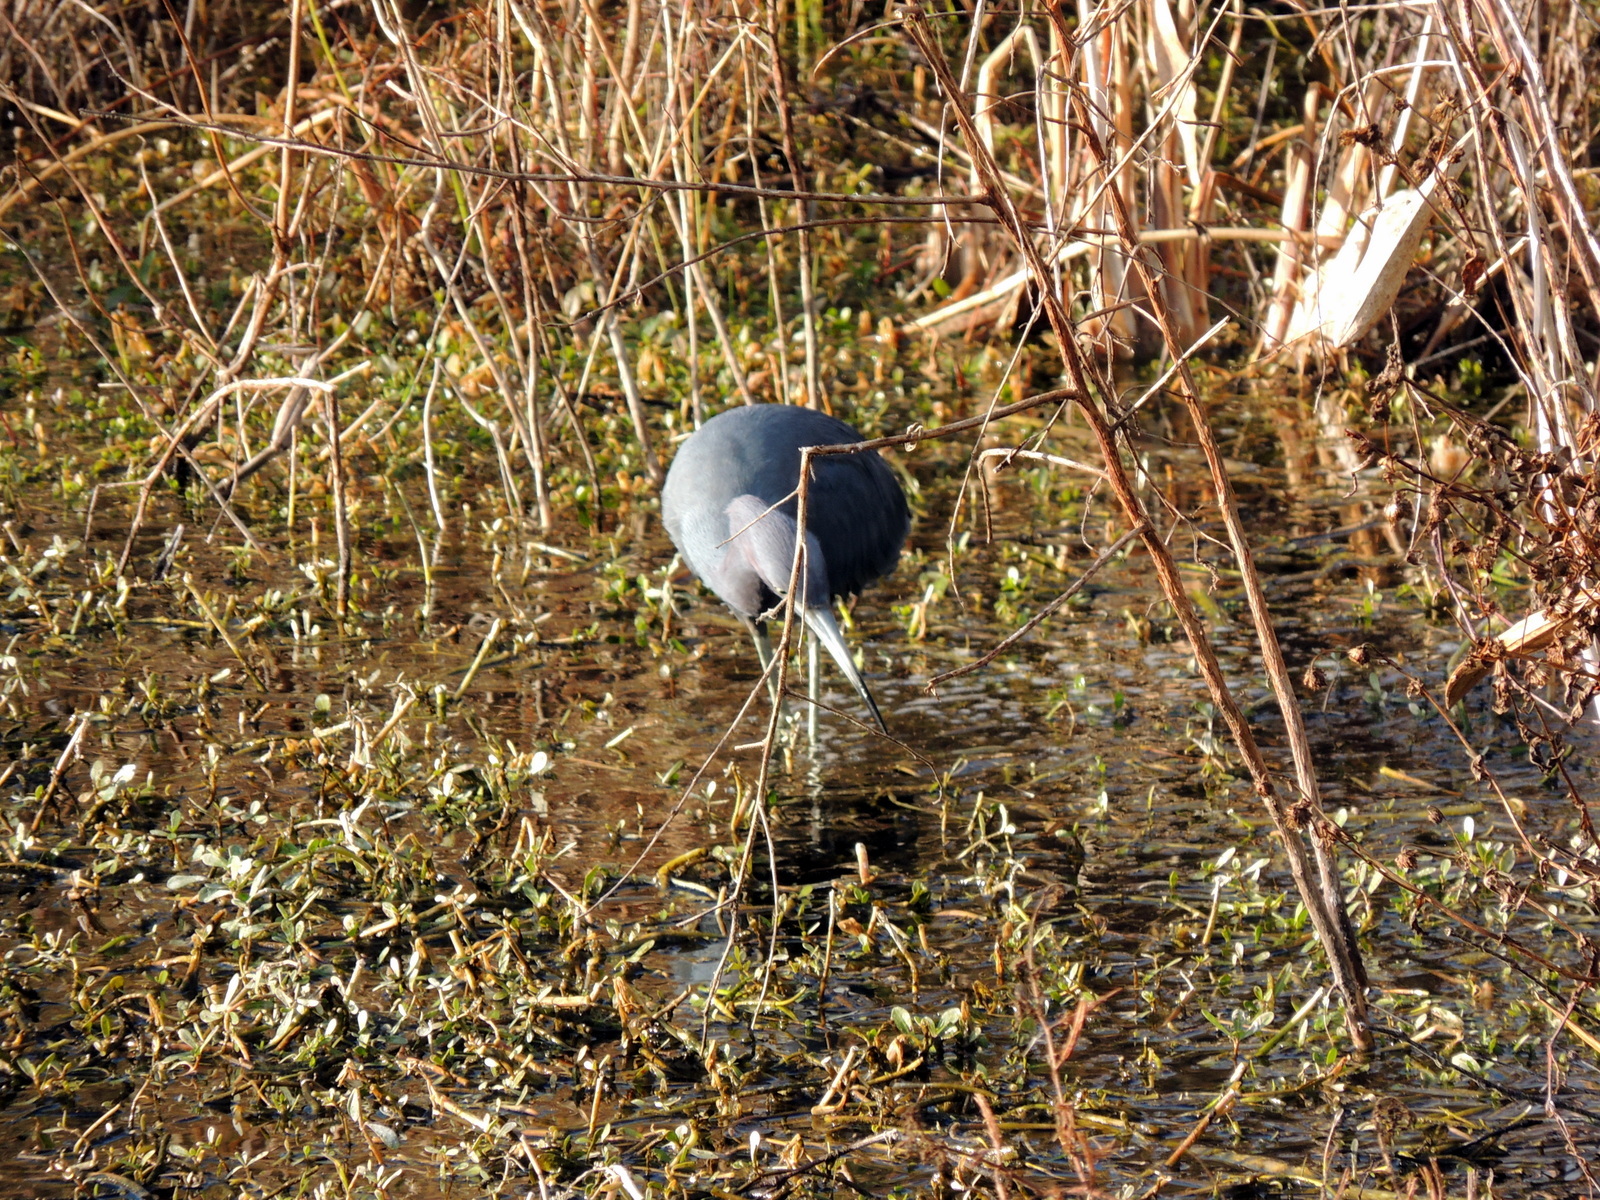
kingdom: Animalia
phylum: Chordata
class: Aves
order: Pelecaniformes
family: Ardeidae
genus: Egretta
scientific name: Egretta caerulea
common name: Little blue heron
